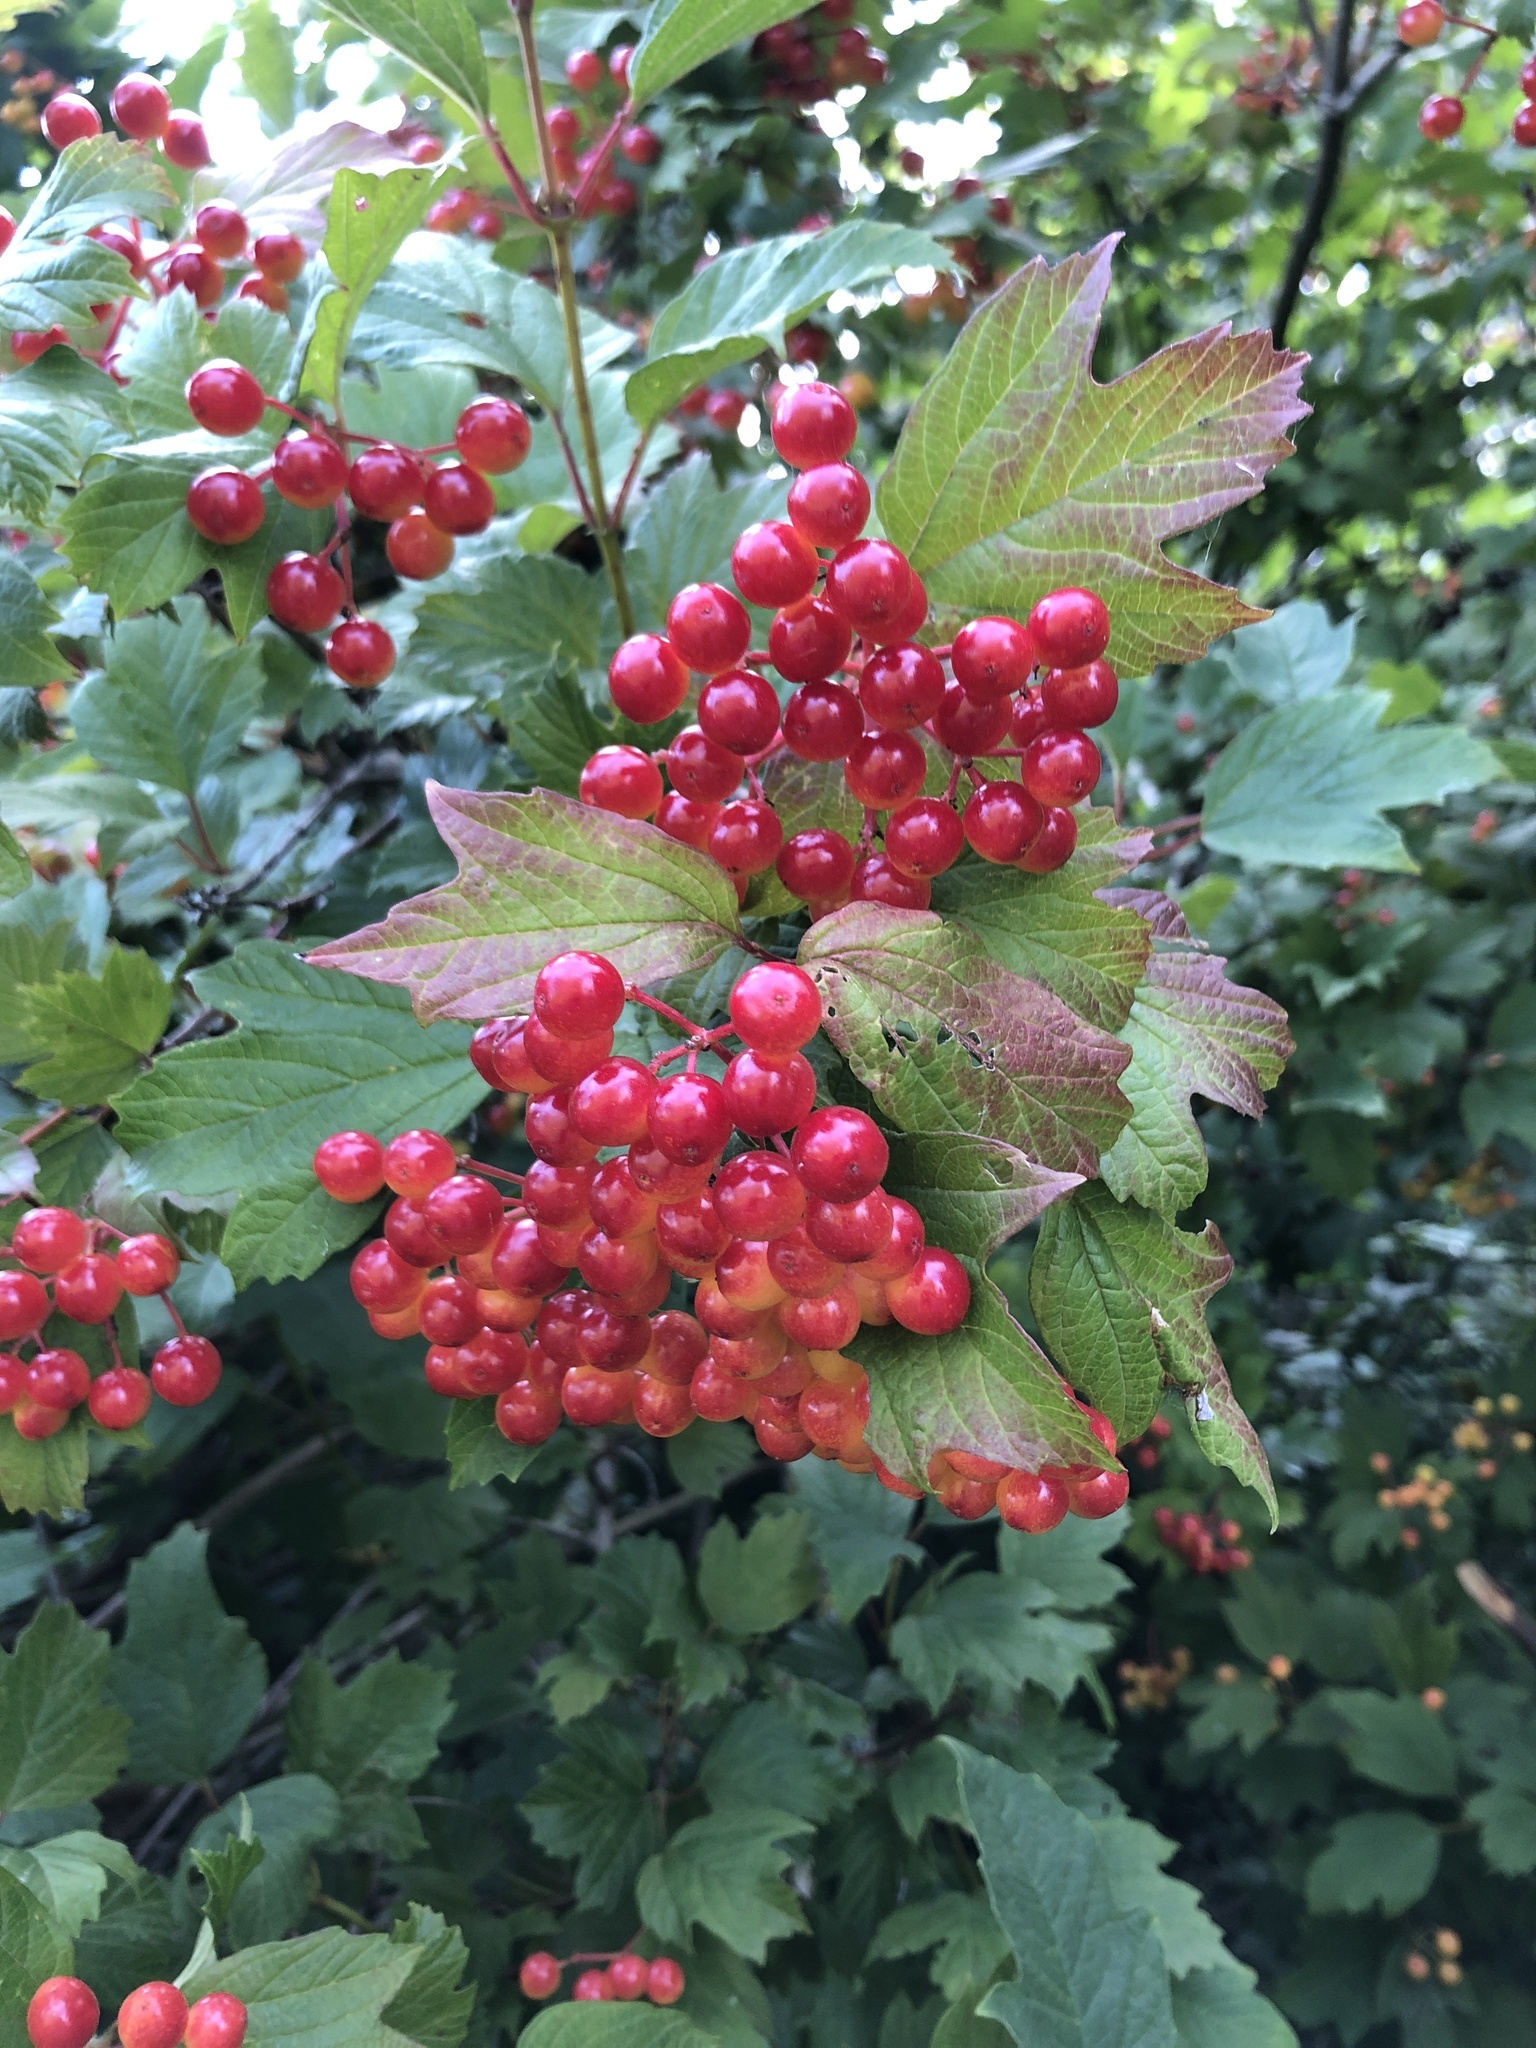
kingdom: Plantae
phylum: Tracheophyta
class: Magnoliopsida
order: Dipsacales
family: Viburnaceae
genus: Viburnum
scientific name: Viburnum opulus
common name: Guelder-rose
